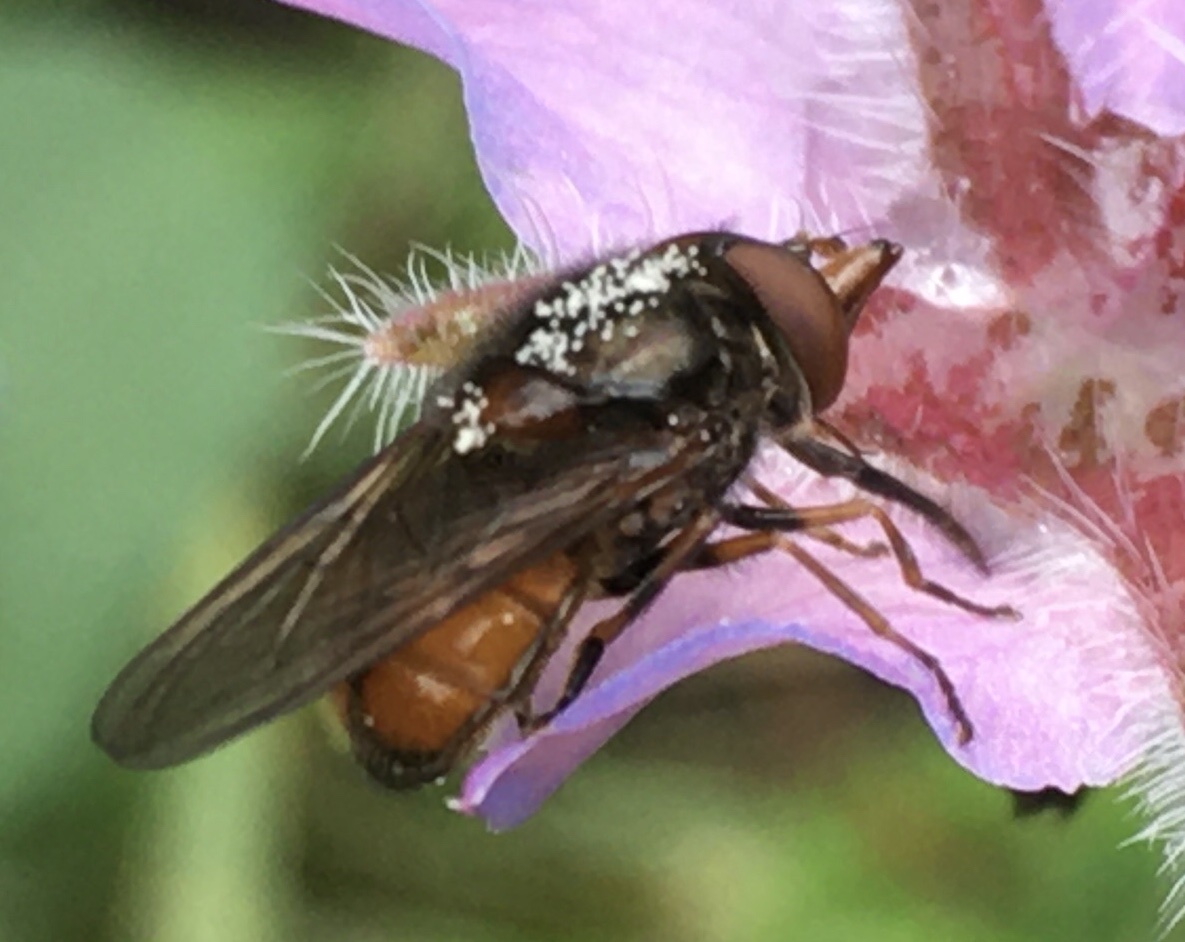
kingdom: Animalia
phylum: Arthropoda
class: Insecta
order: Diptera
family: Syrphidae
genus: Rhingia
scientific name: Rhingia campestris
